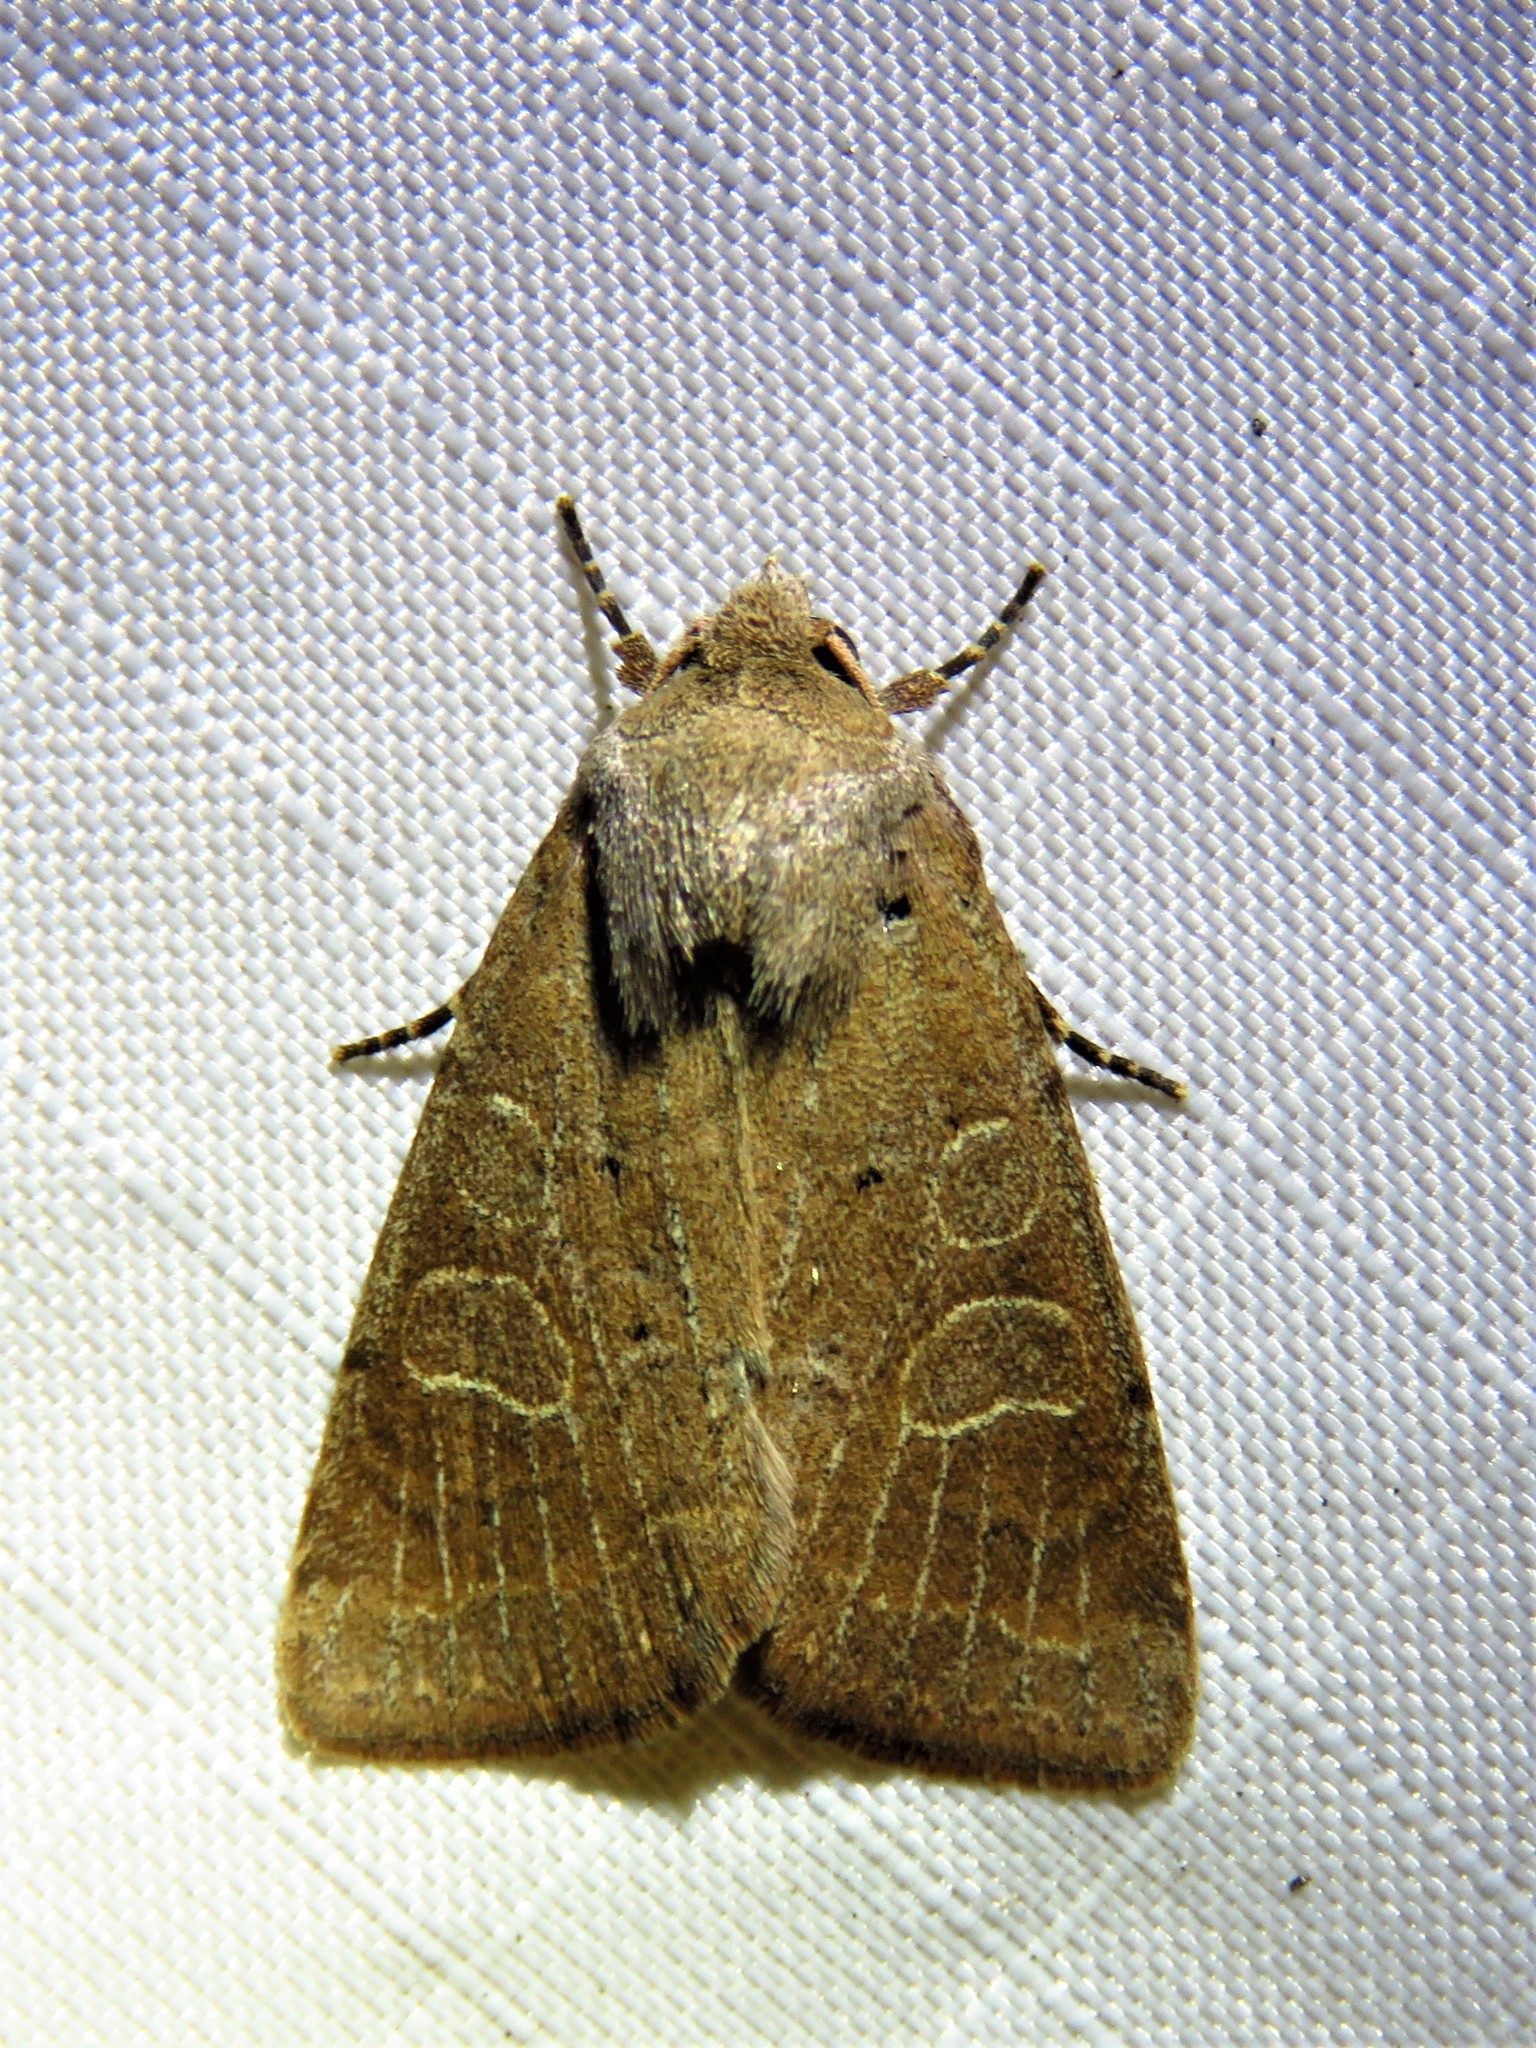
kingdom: Animalia
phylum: Arthropoda
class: Insecta
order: Lepidoptera
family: Noctuidae
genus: Kocakina
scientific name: Kocakina fidelis
